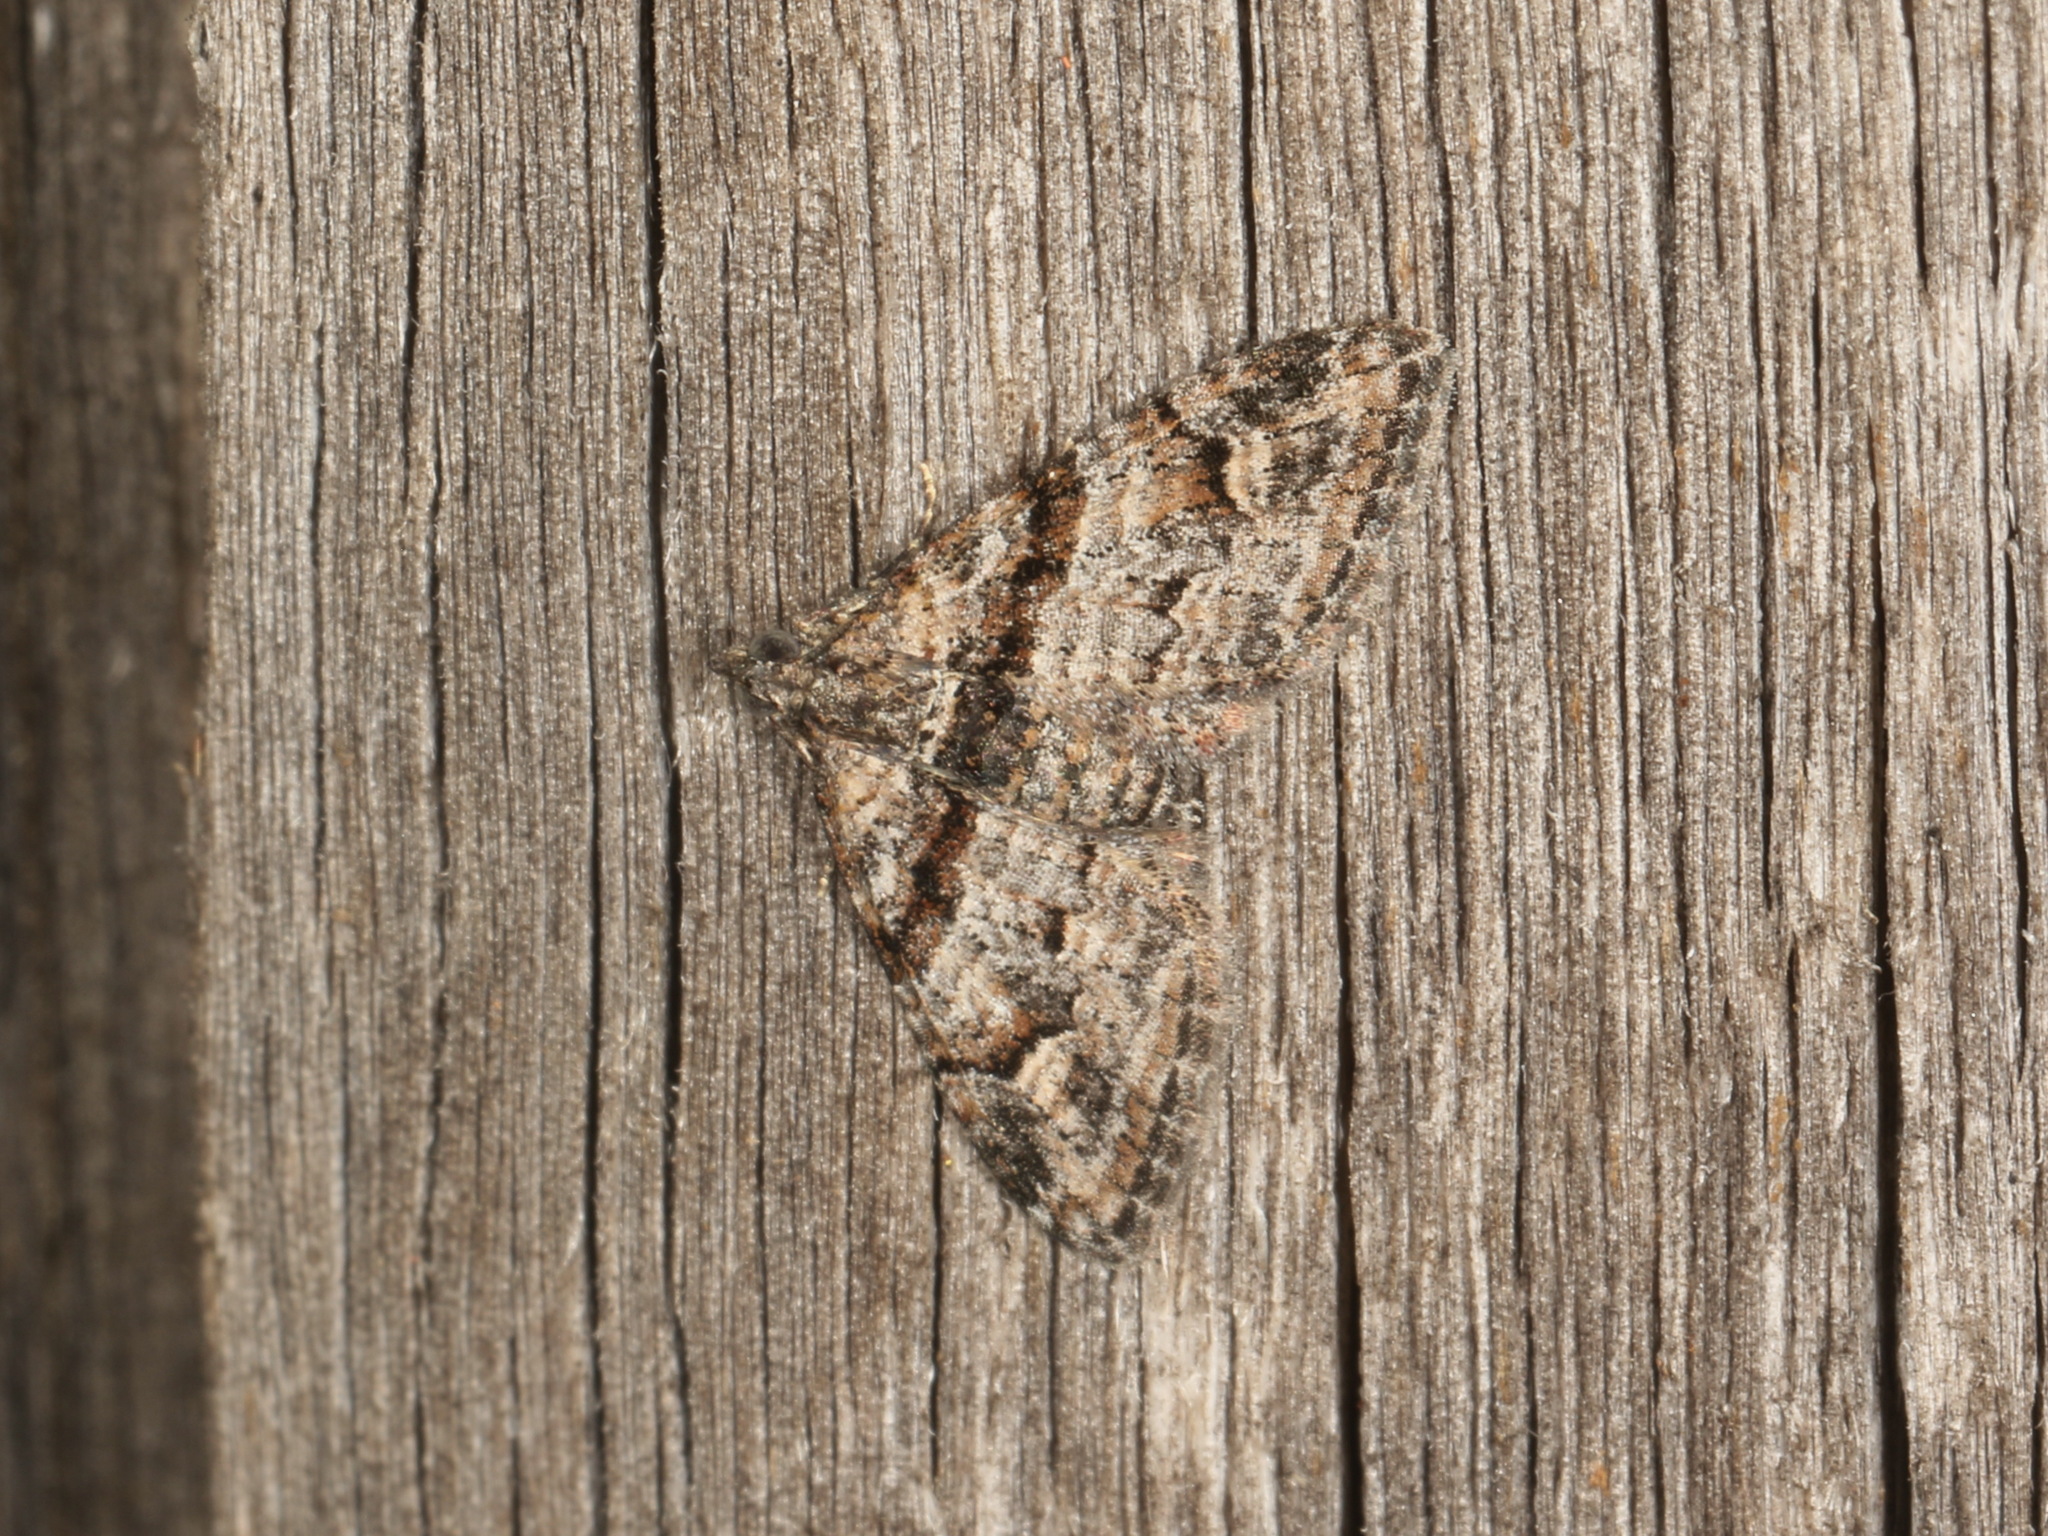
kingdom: Animalia
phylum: Arthropoda
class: Insecta
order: Lepidoptera
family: Geometridae
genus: Phrissogonus
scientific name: Phrissogonus laticostata
